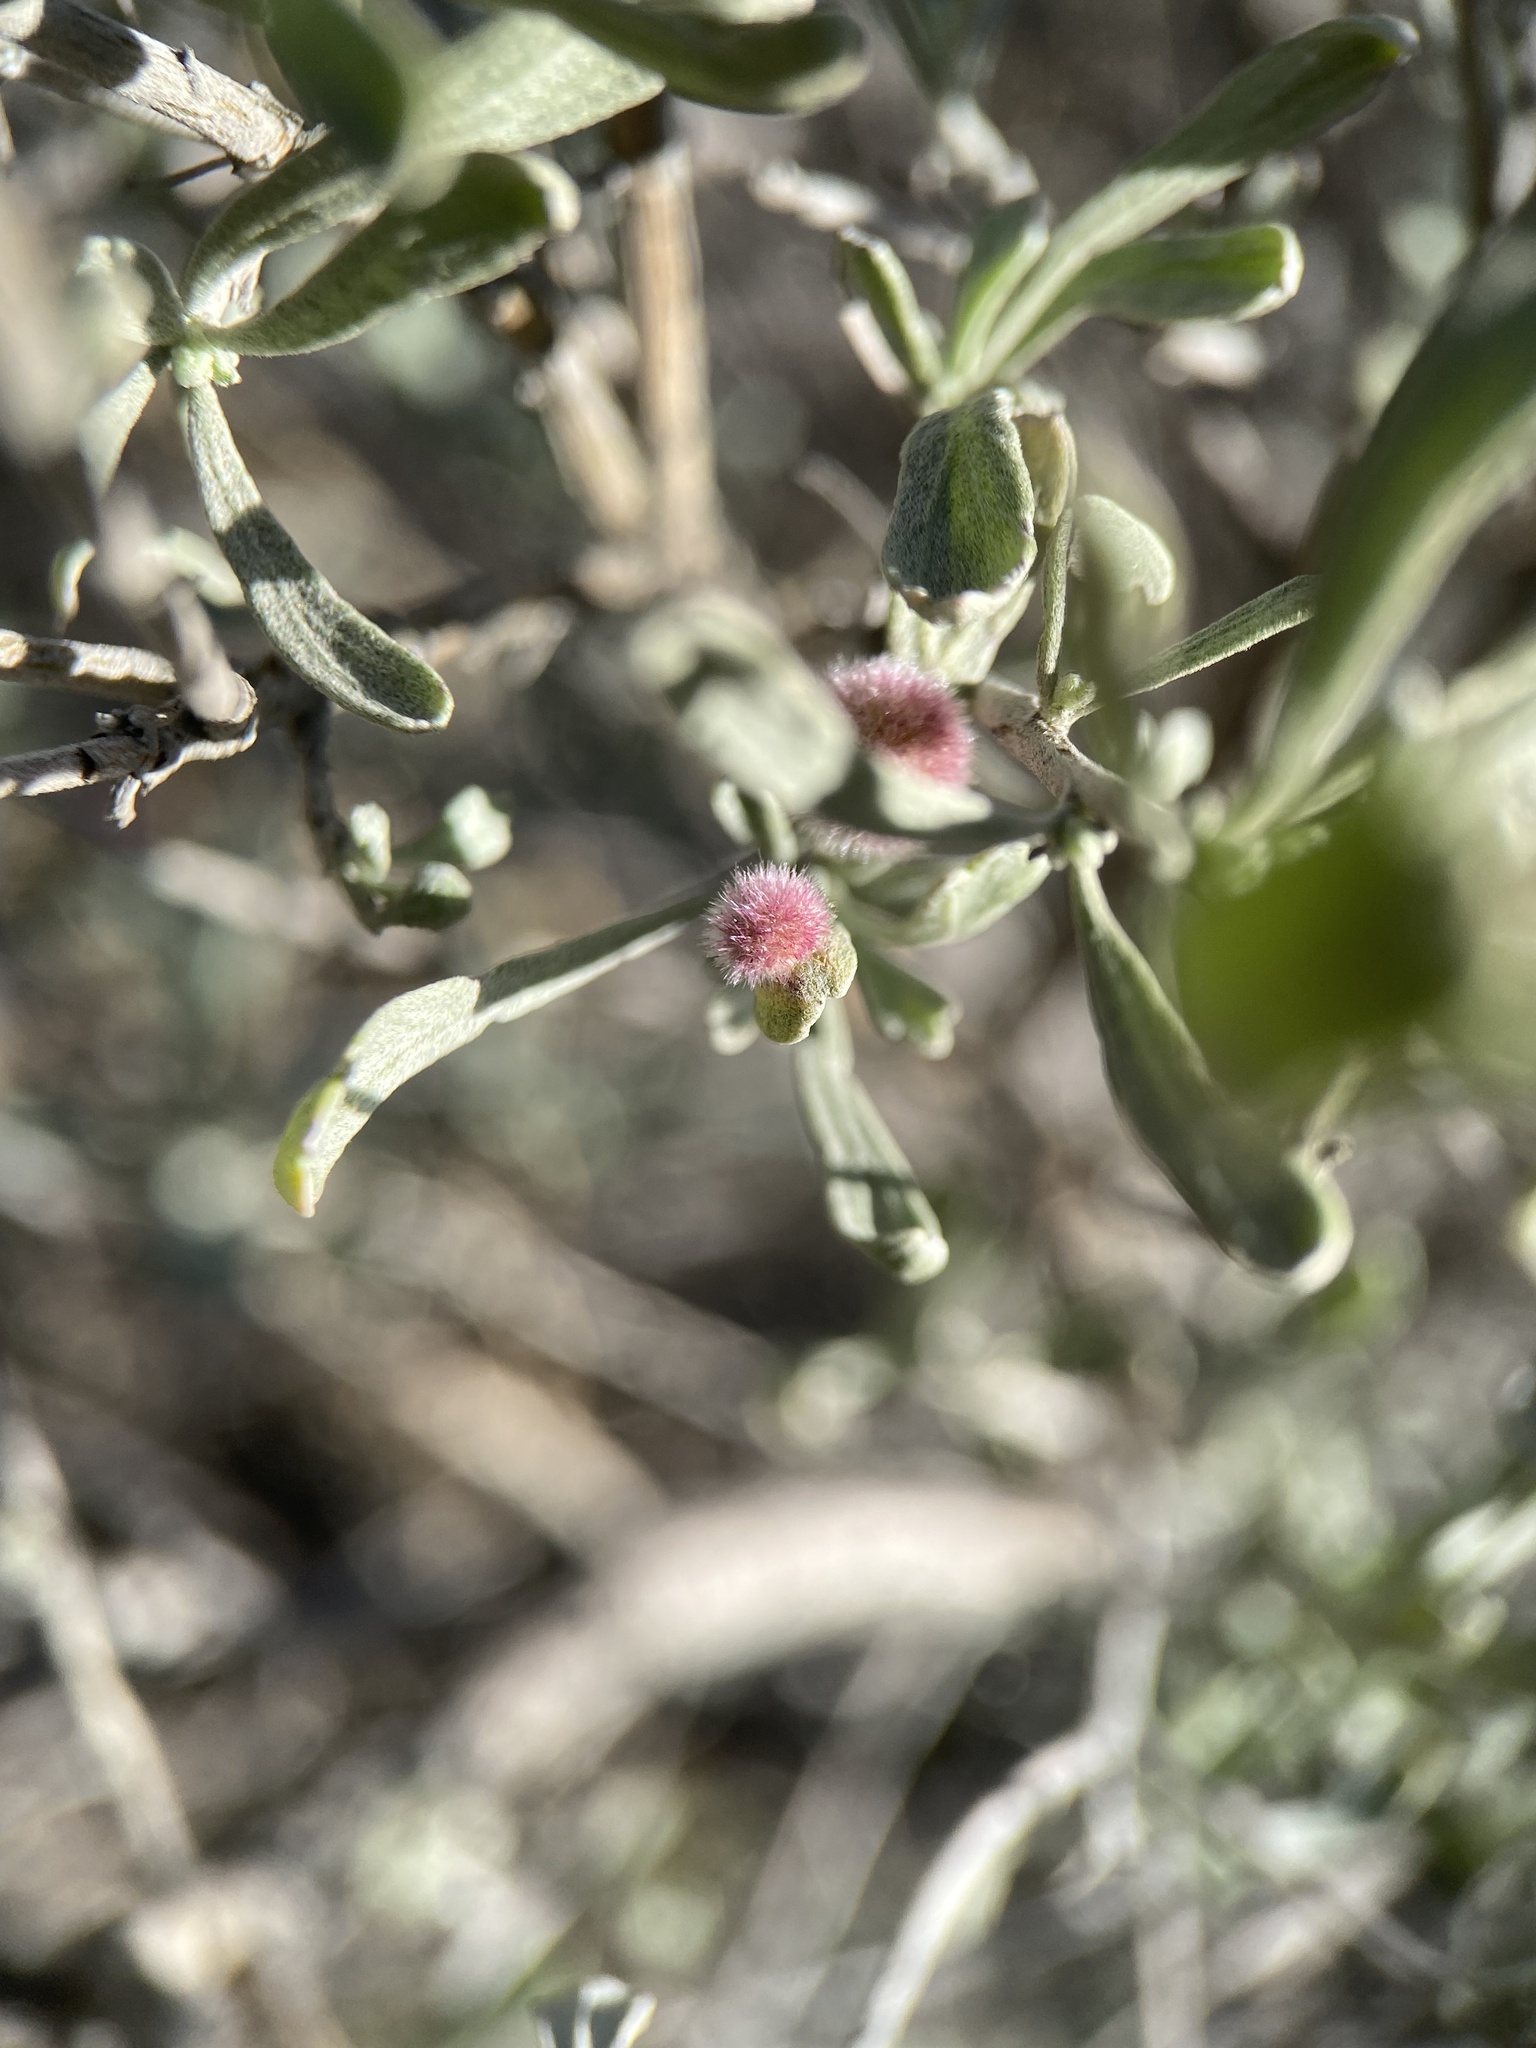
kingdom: Animalia
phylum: Arthropoda
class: Insecta
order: Diptera
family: Cecidomyiidae
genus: Rhopalomyia
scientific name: Rhopalomyia hirtipomum
